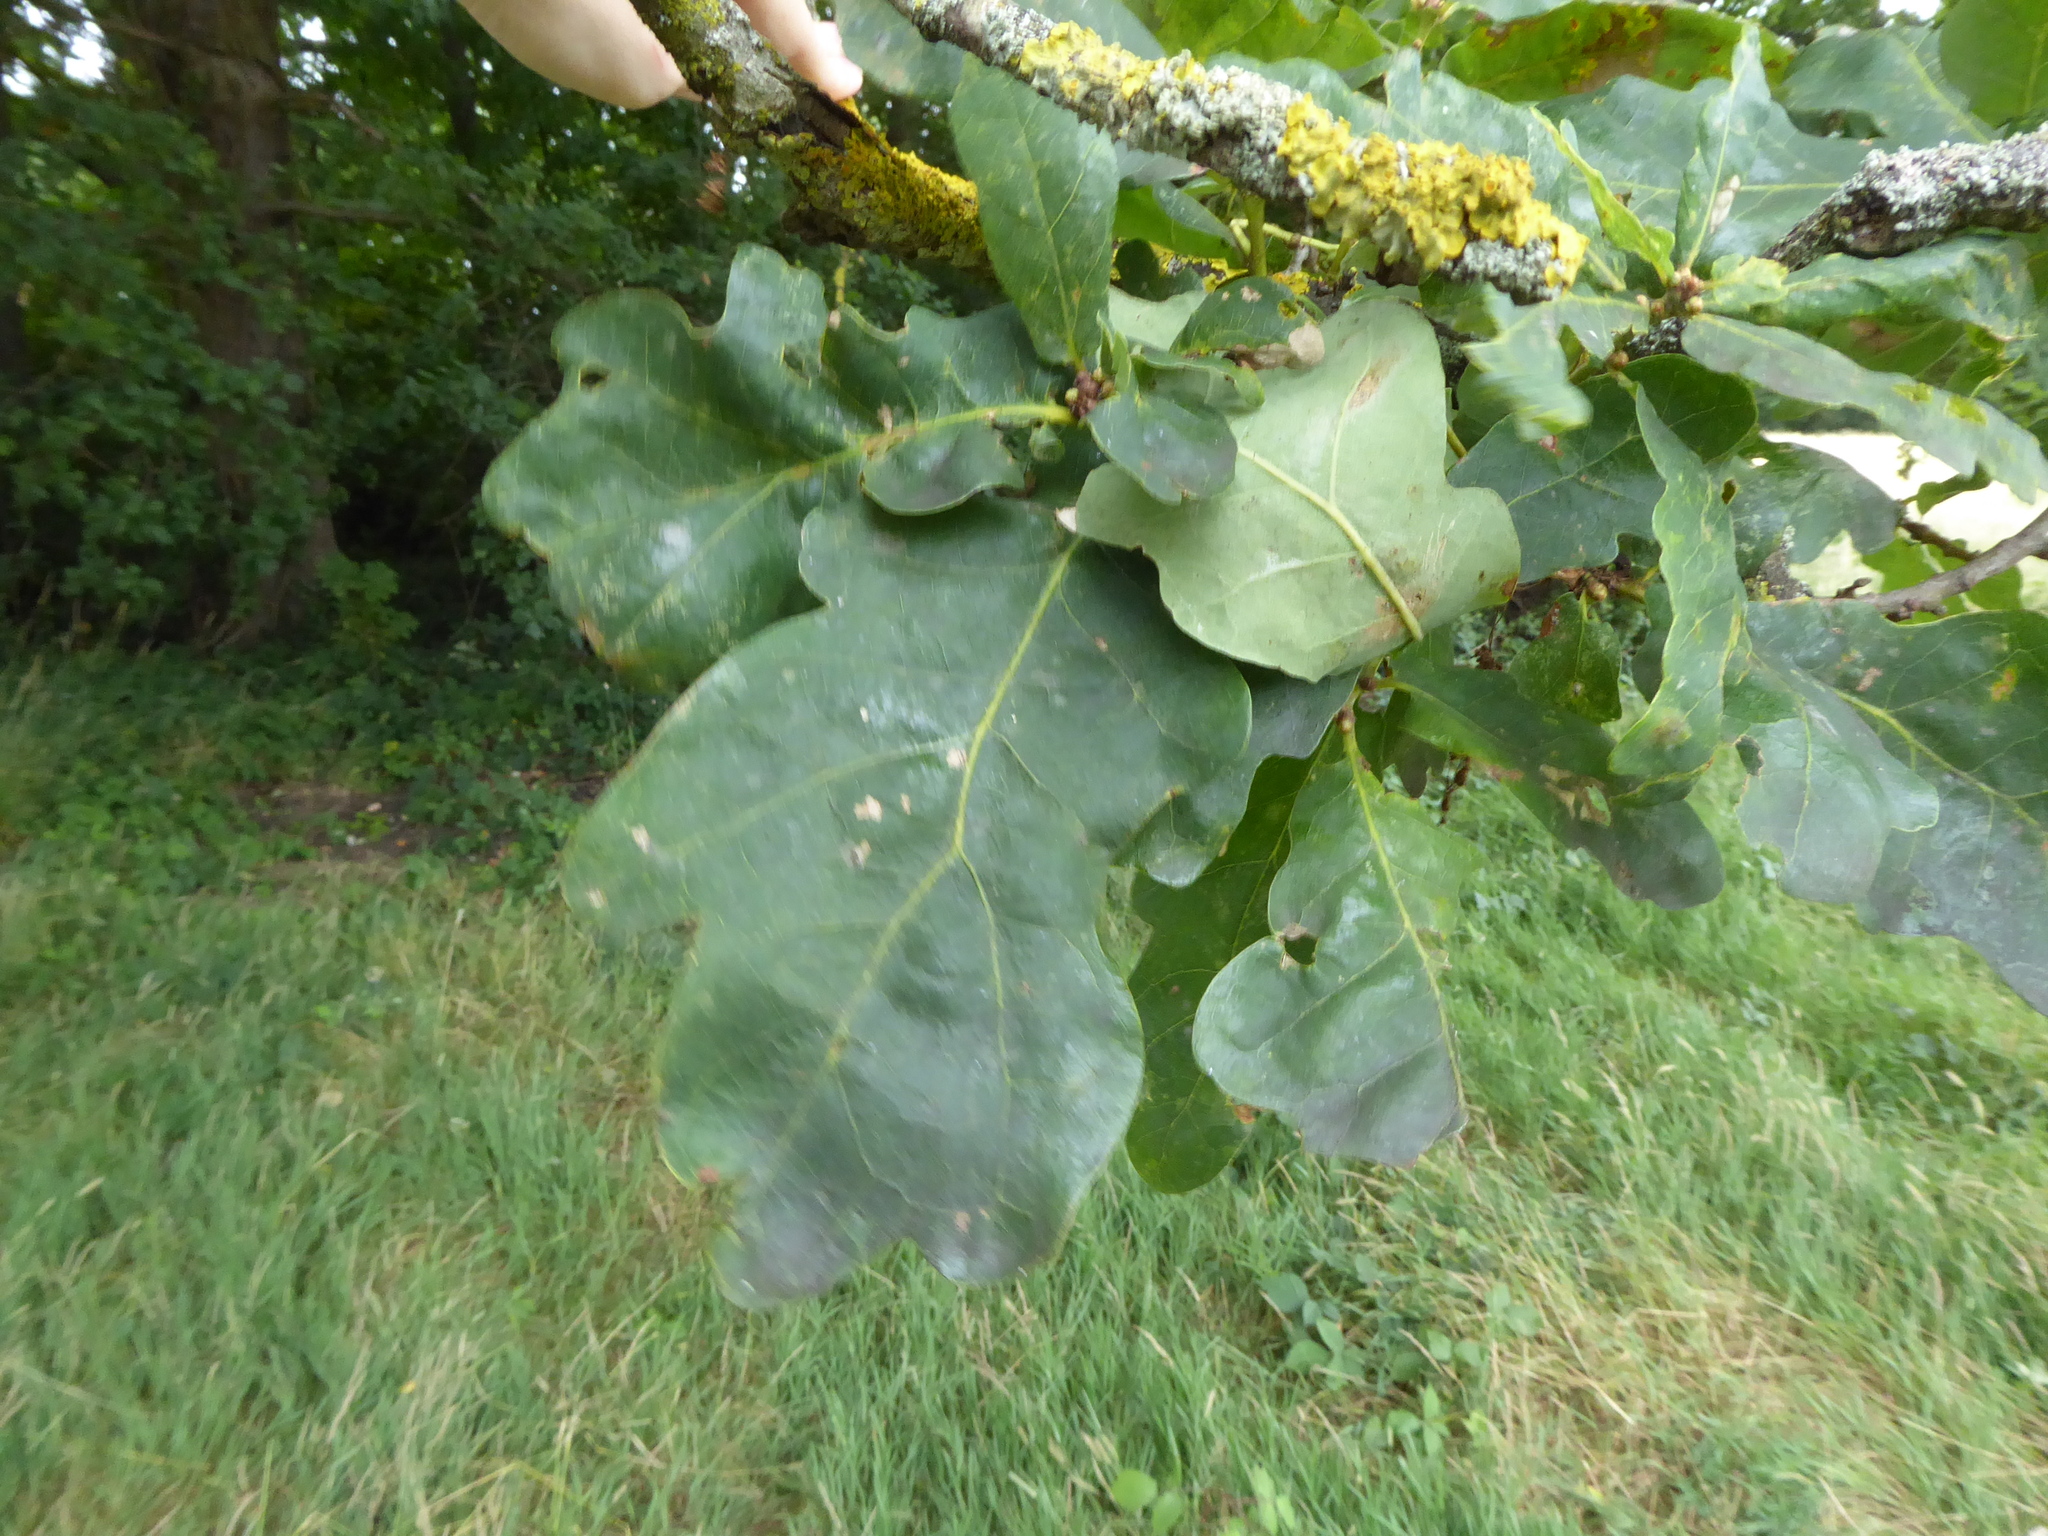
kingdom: Plantae
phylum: Tracheophyta
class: Magnoliopsida
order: Fagales
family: Fagaceae
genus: Quercus
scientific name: Quercus robur
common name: Pedunculate oak
